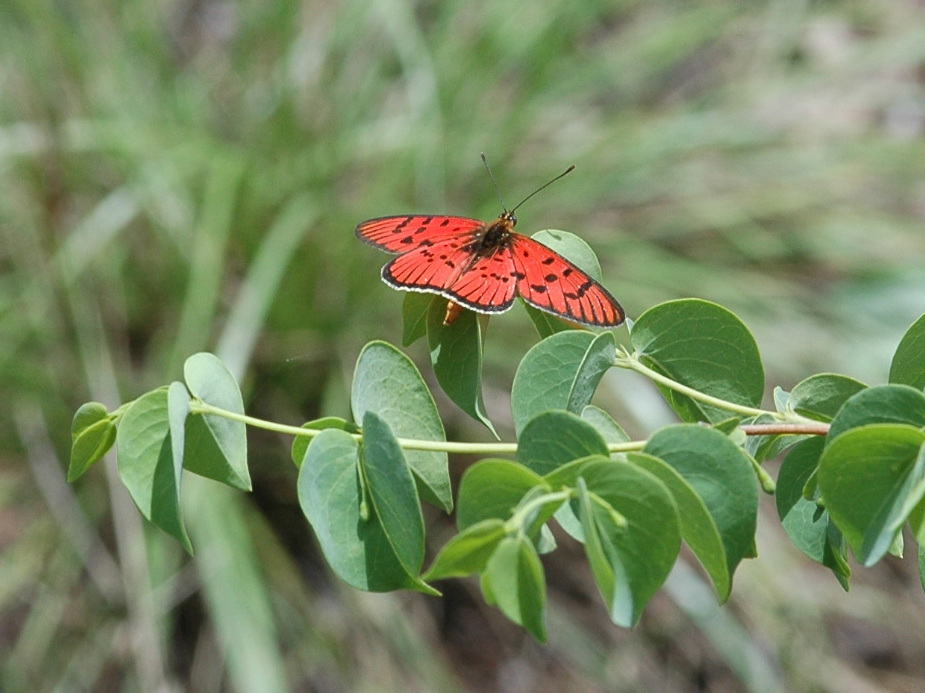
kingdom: Animalia
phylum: Arthropoda
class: Insecta
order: Lepidoptera
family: Nymphalidae
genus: Rubraea
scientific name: Rubraea
